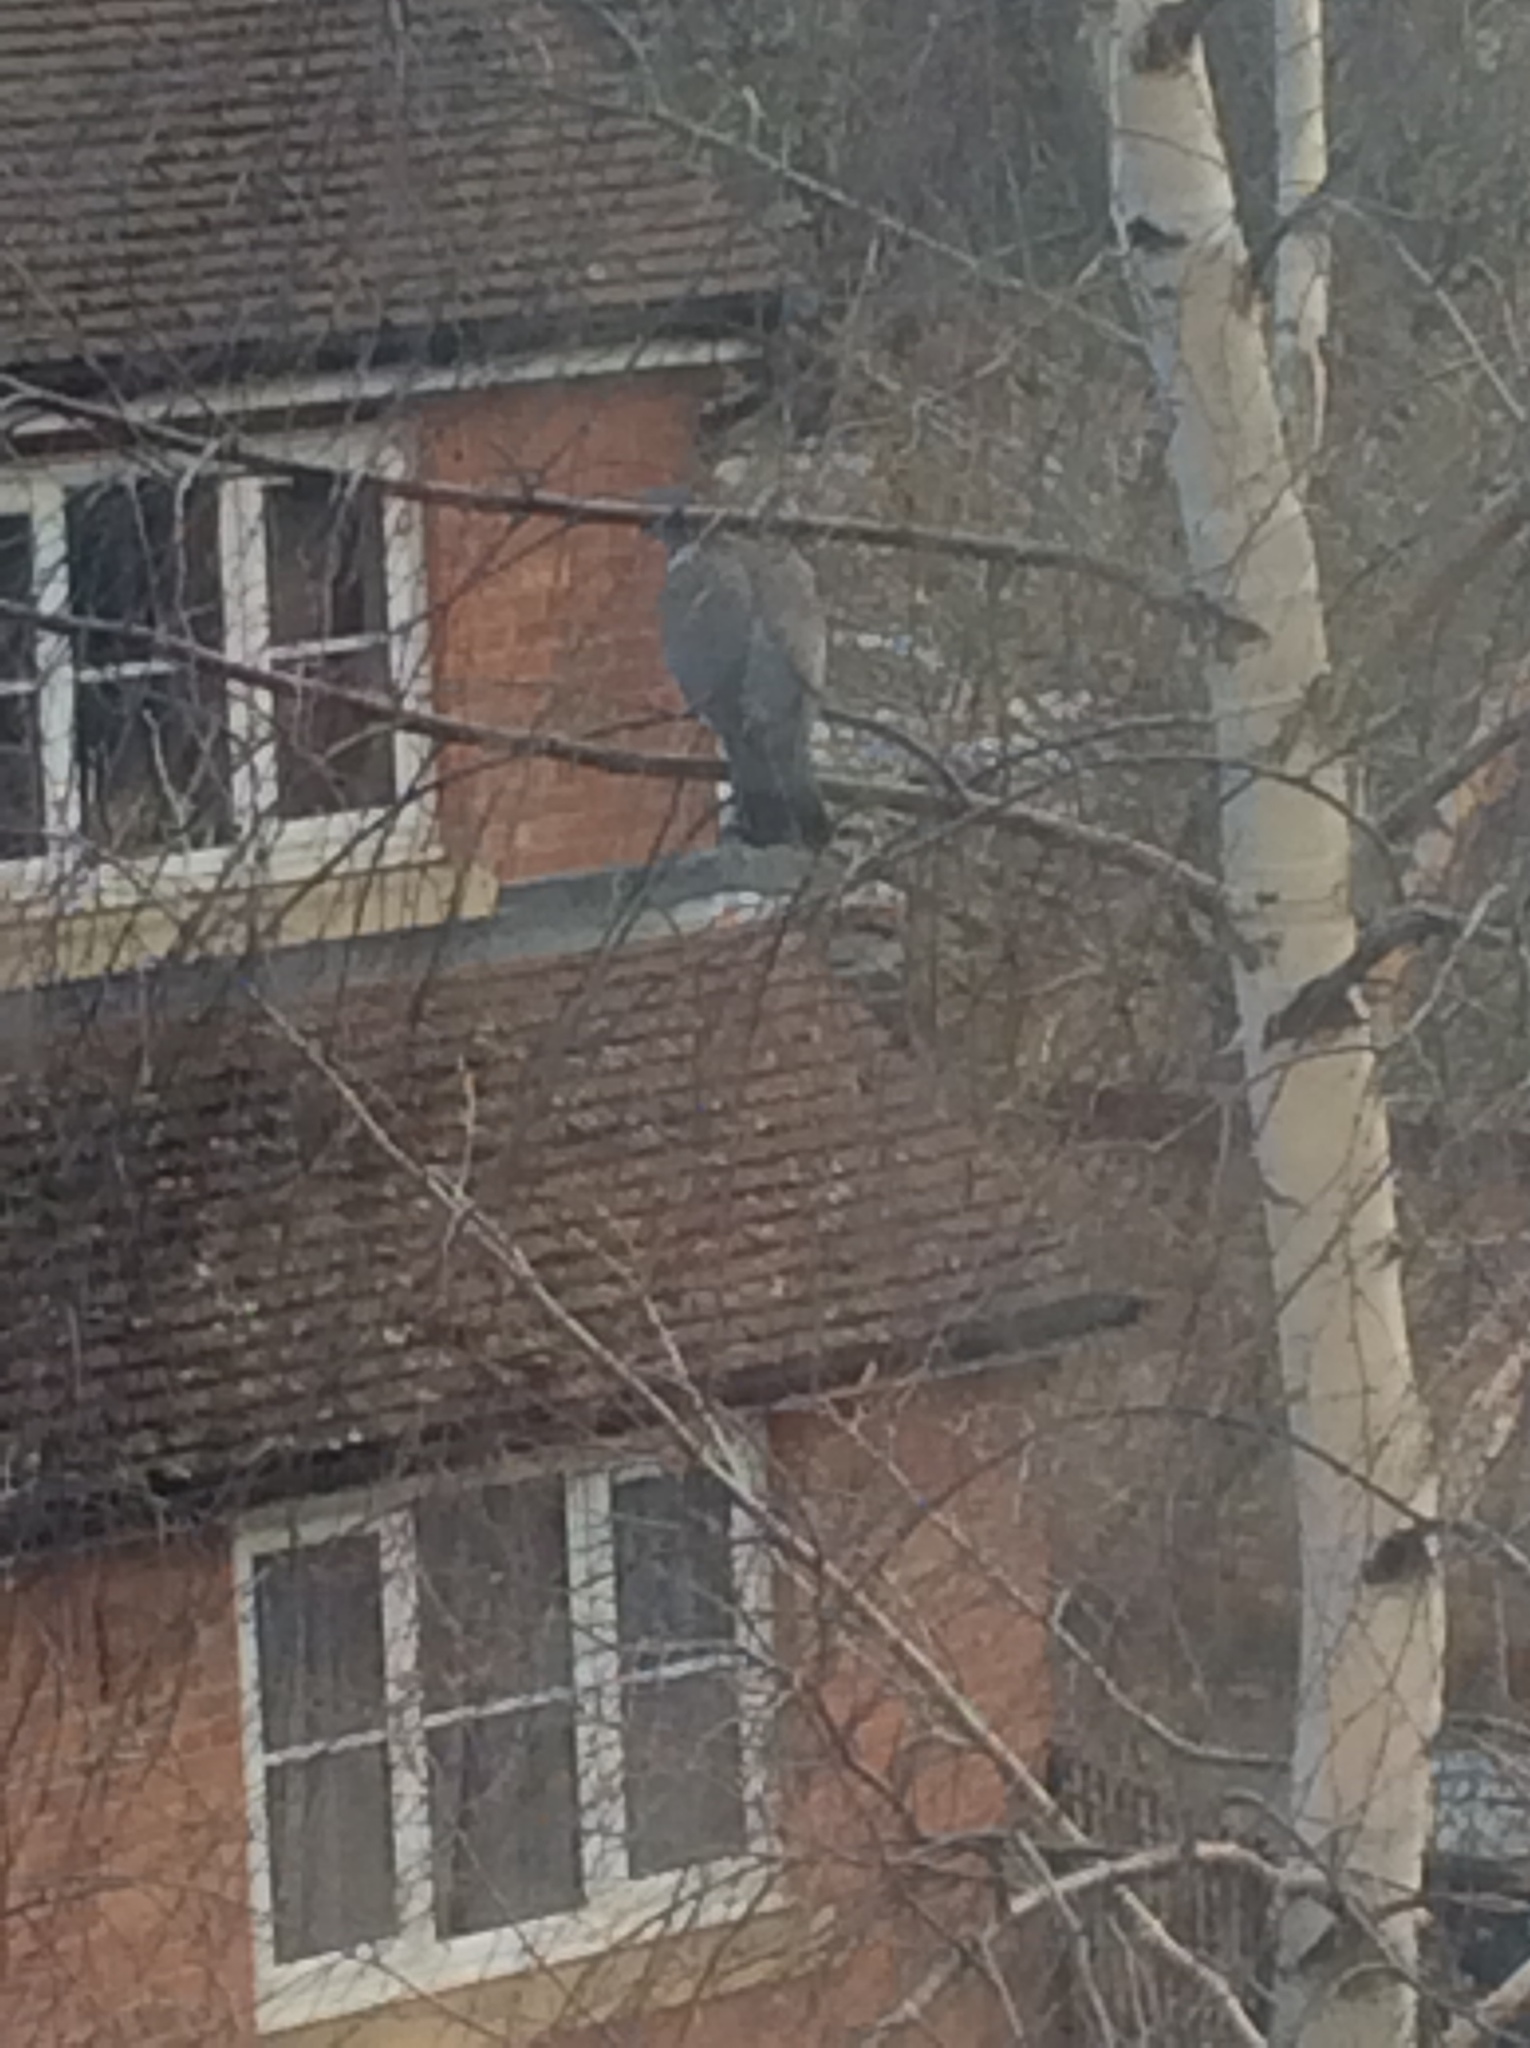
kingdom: Animalia
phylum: Chordata
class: Aves
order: Columbiformes
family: Columbidae
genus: Columba
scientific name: Columba palumbus
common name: Common wood pigeon
